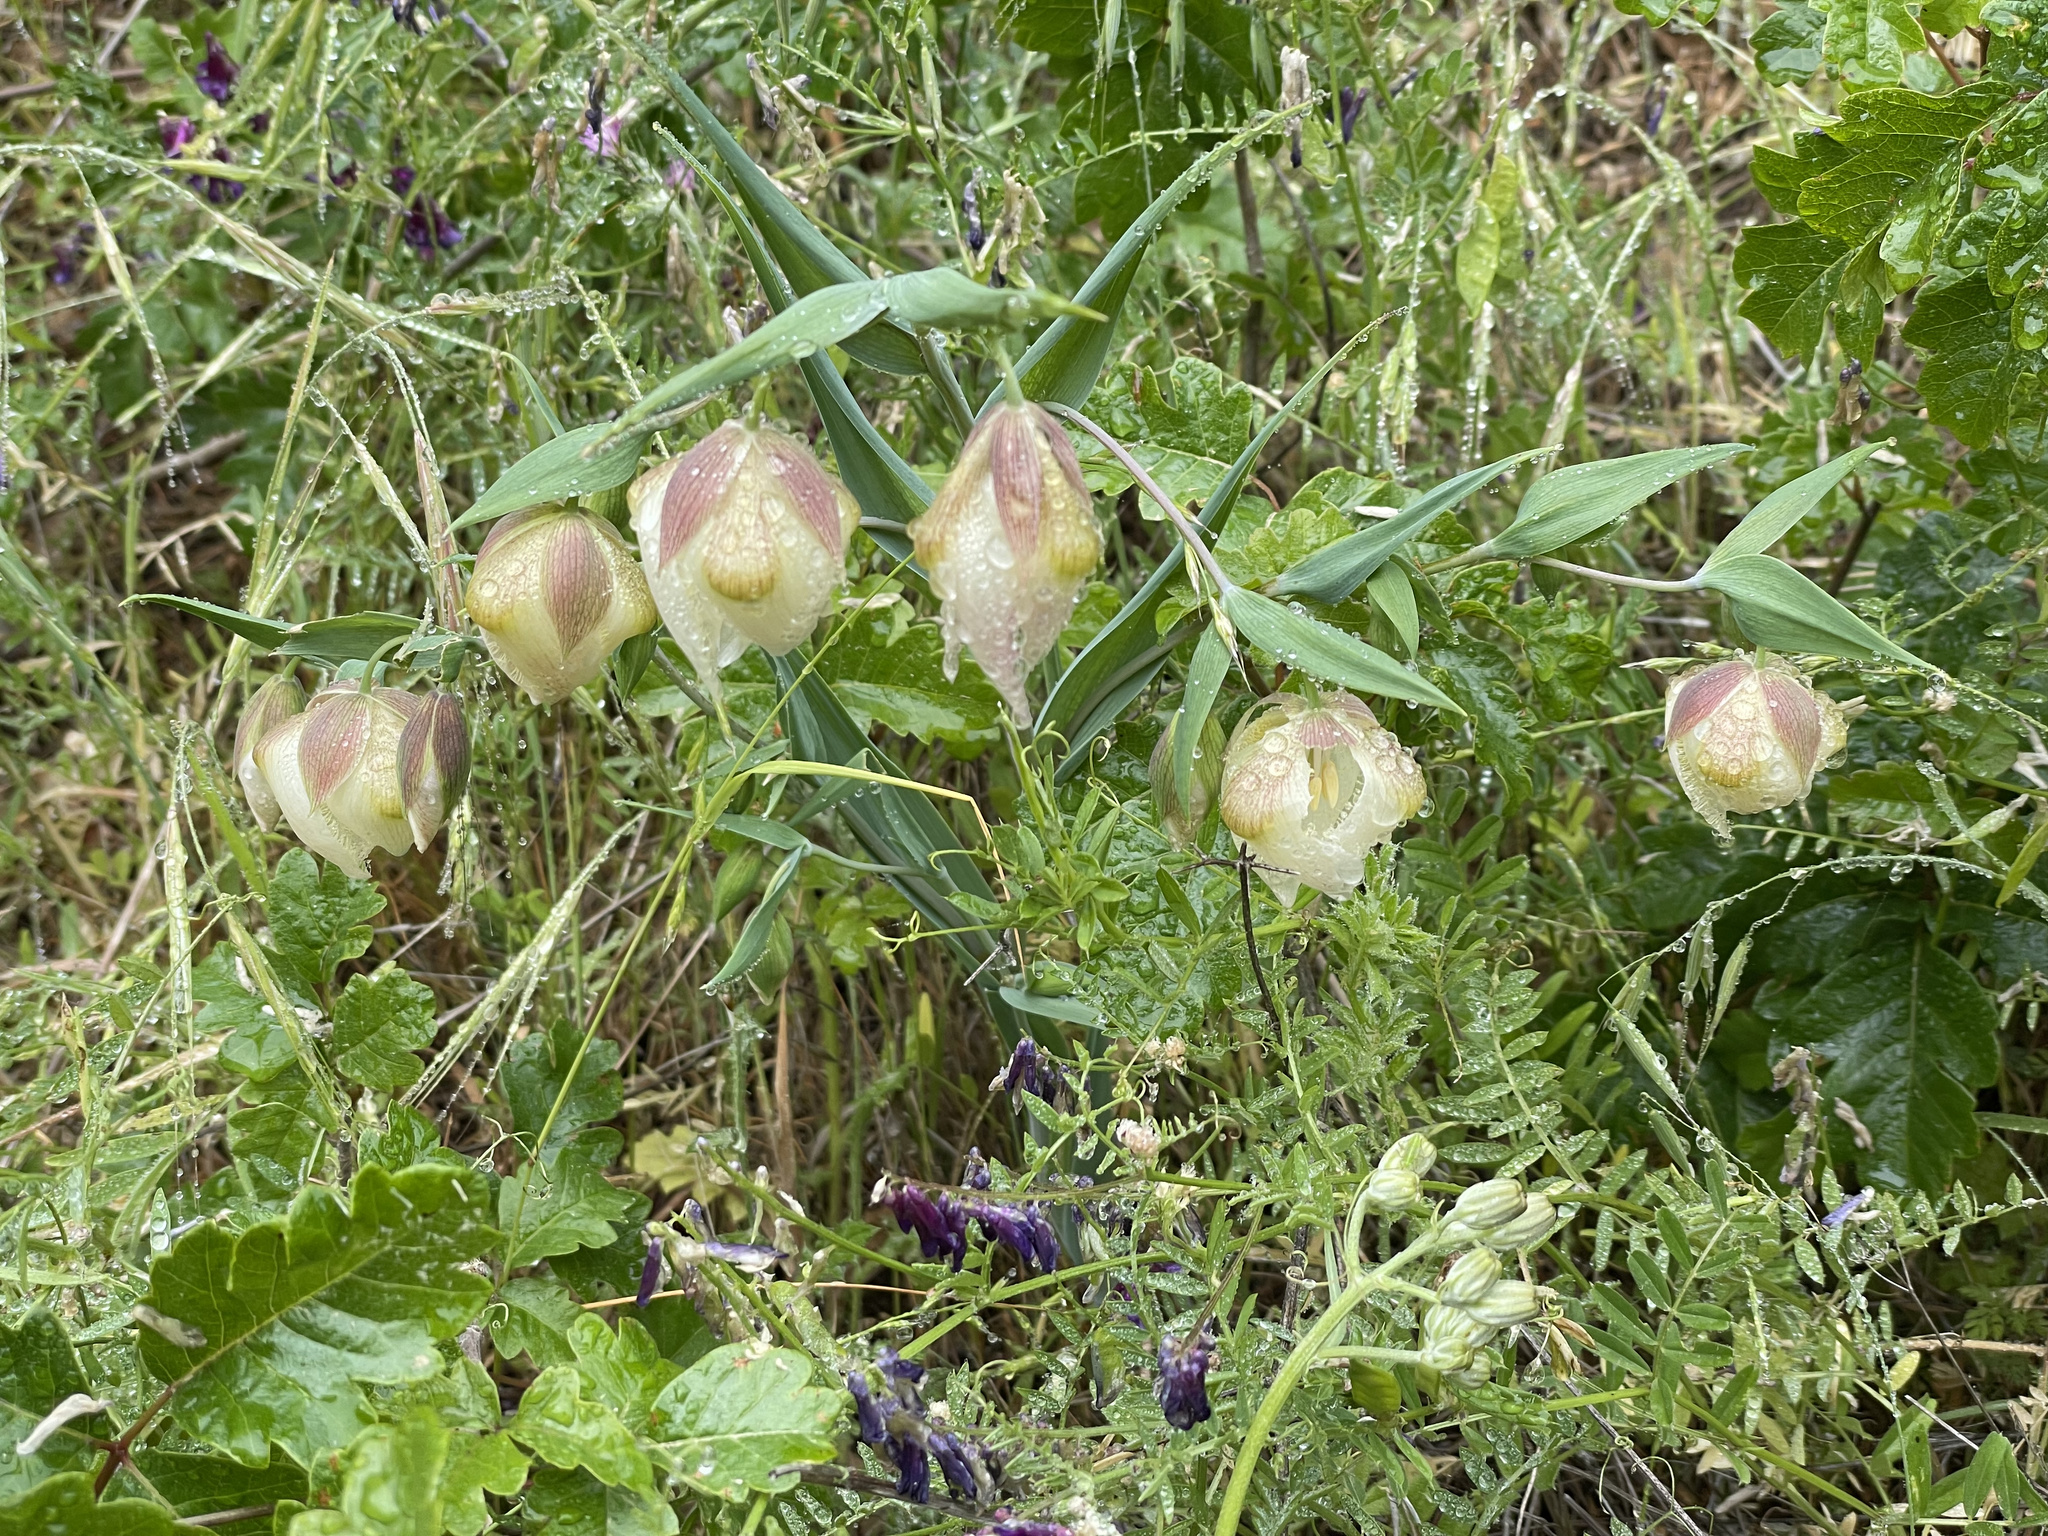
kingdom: Plantae
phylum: Tracheophyta
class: Liliopsida
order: Liliales
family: Liliaceae
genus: Calochortus
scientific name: Calochortus albus
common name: Fairy-lantern
